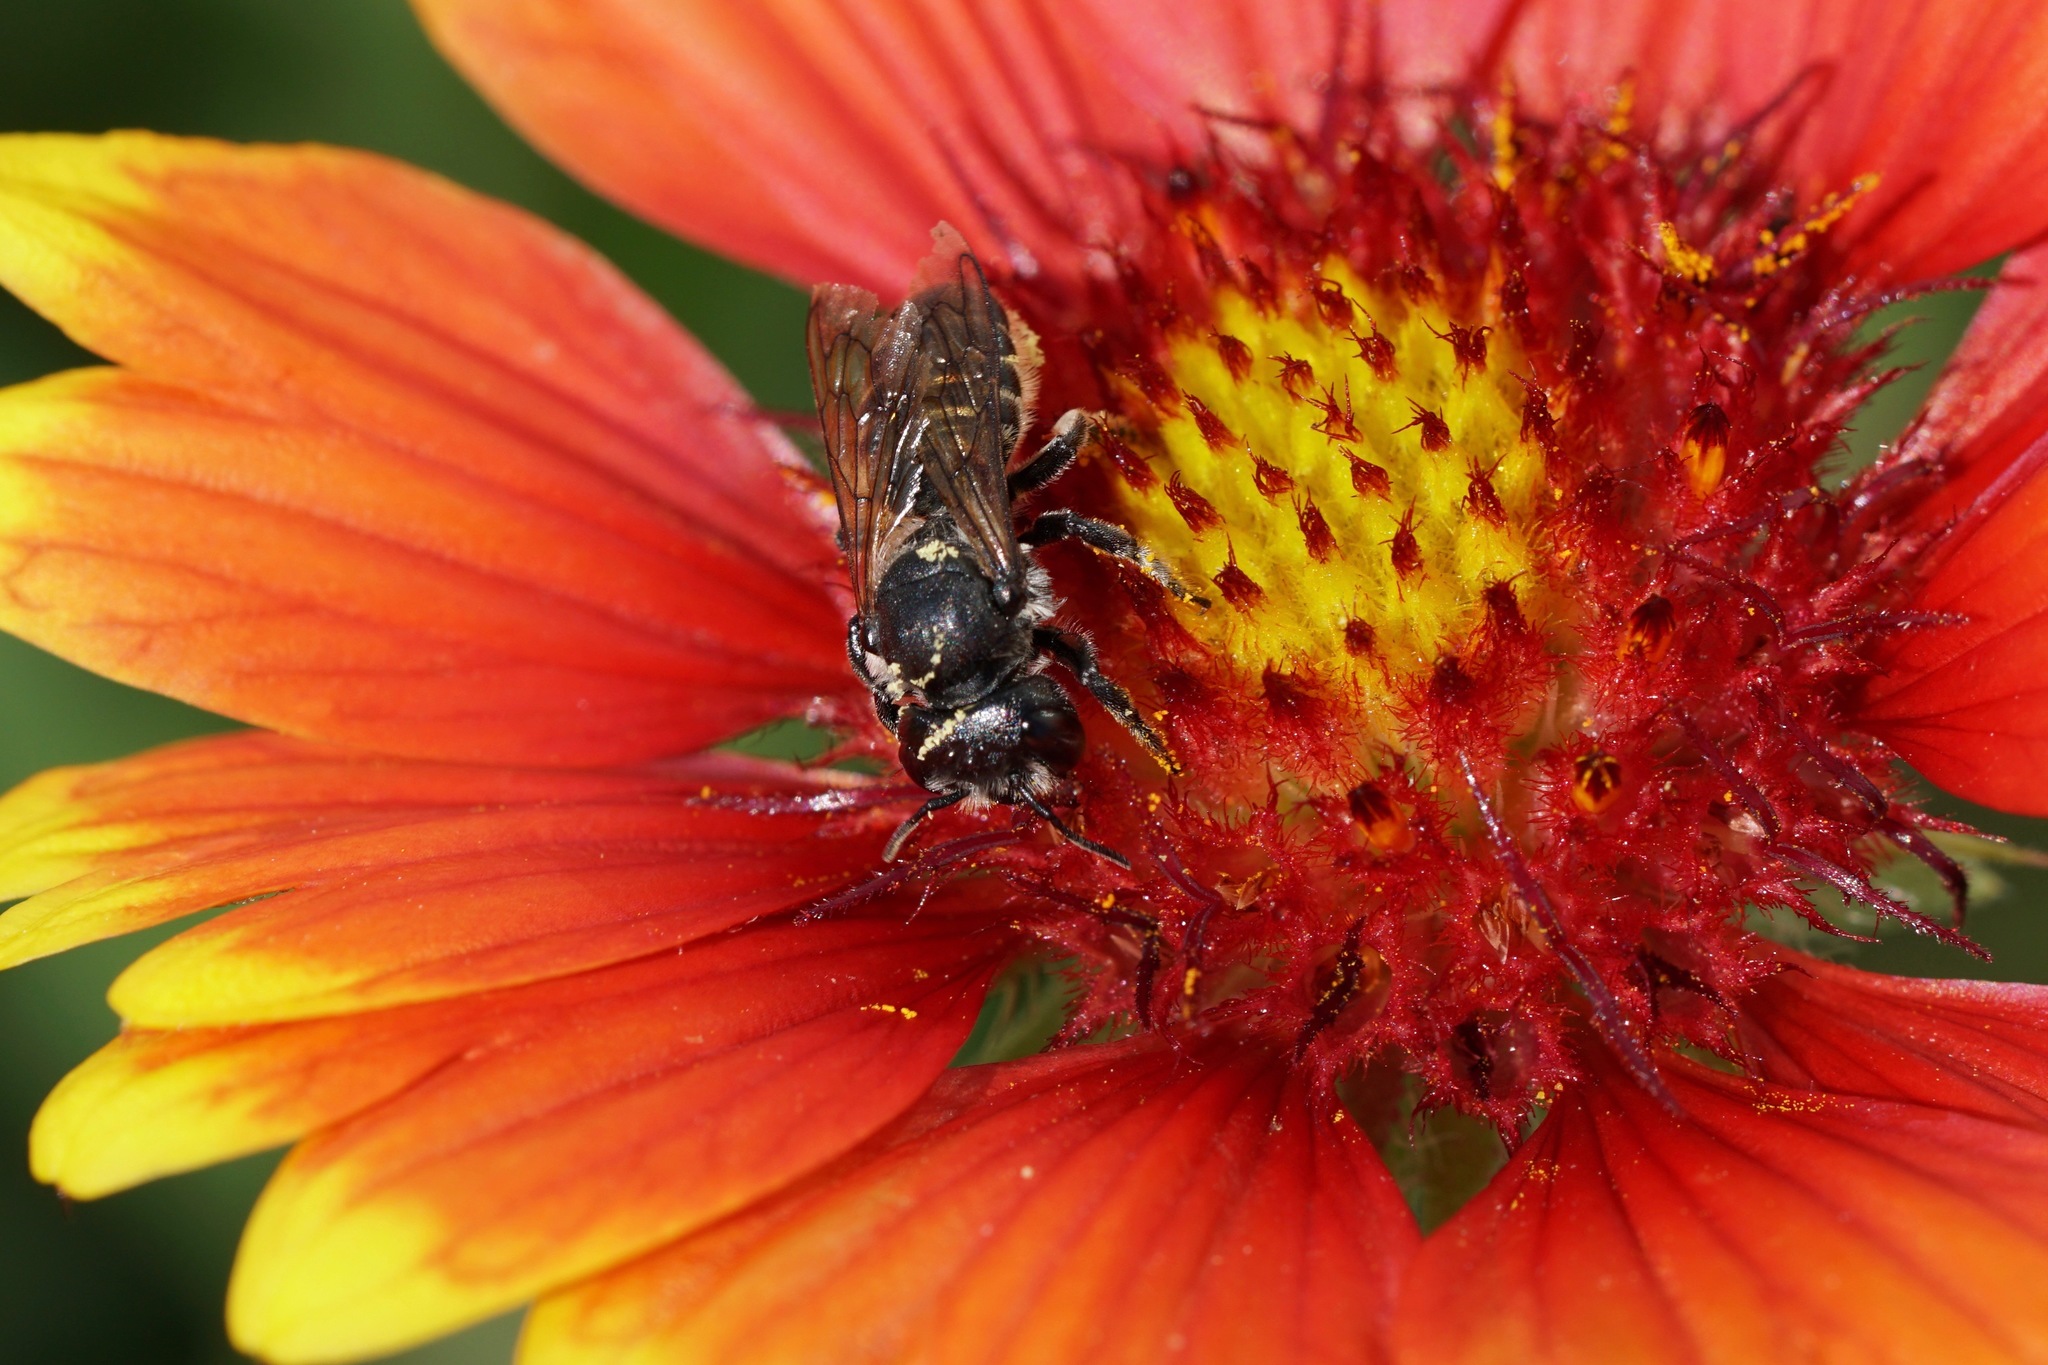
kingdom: Animalia
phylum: Arthropoda
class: Insecta
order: Hymenoptera
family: Megachilidae
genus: Megachile
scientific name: Megachile montivaga
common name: Silver-tailed petalcutter bee
